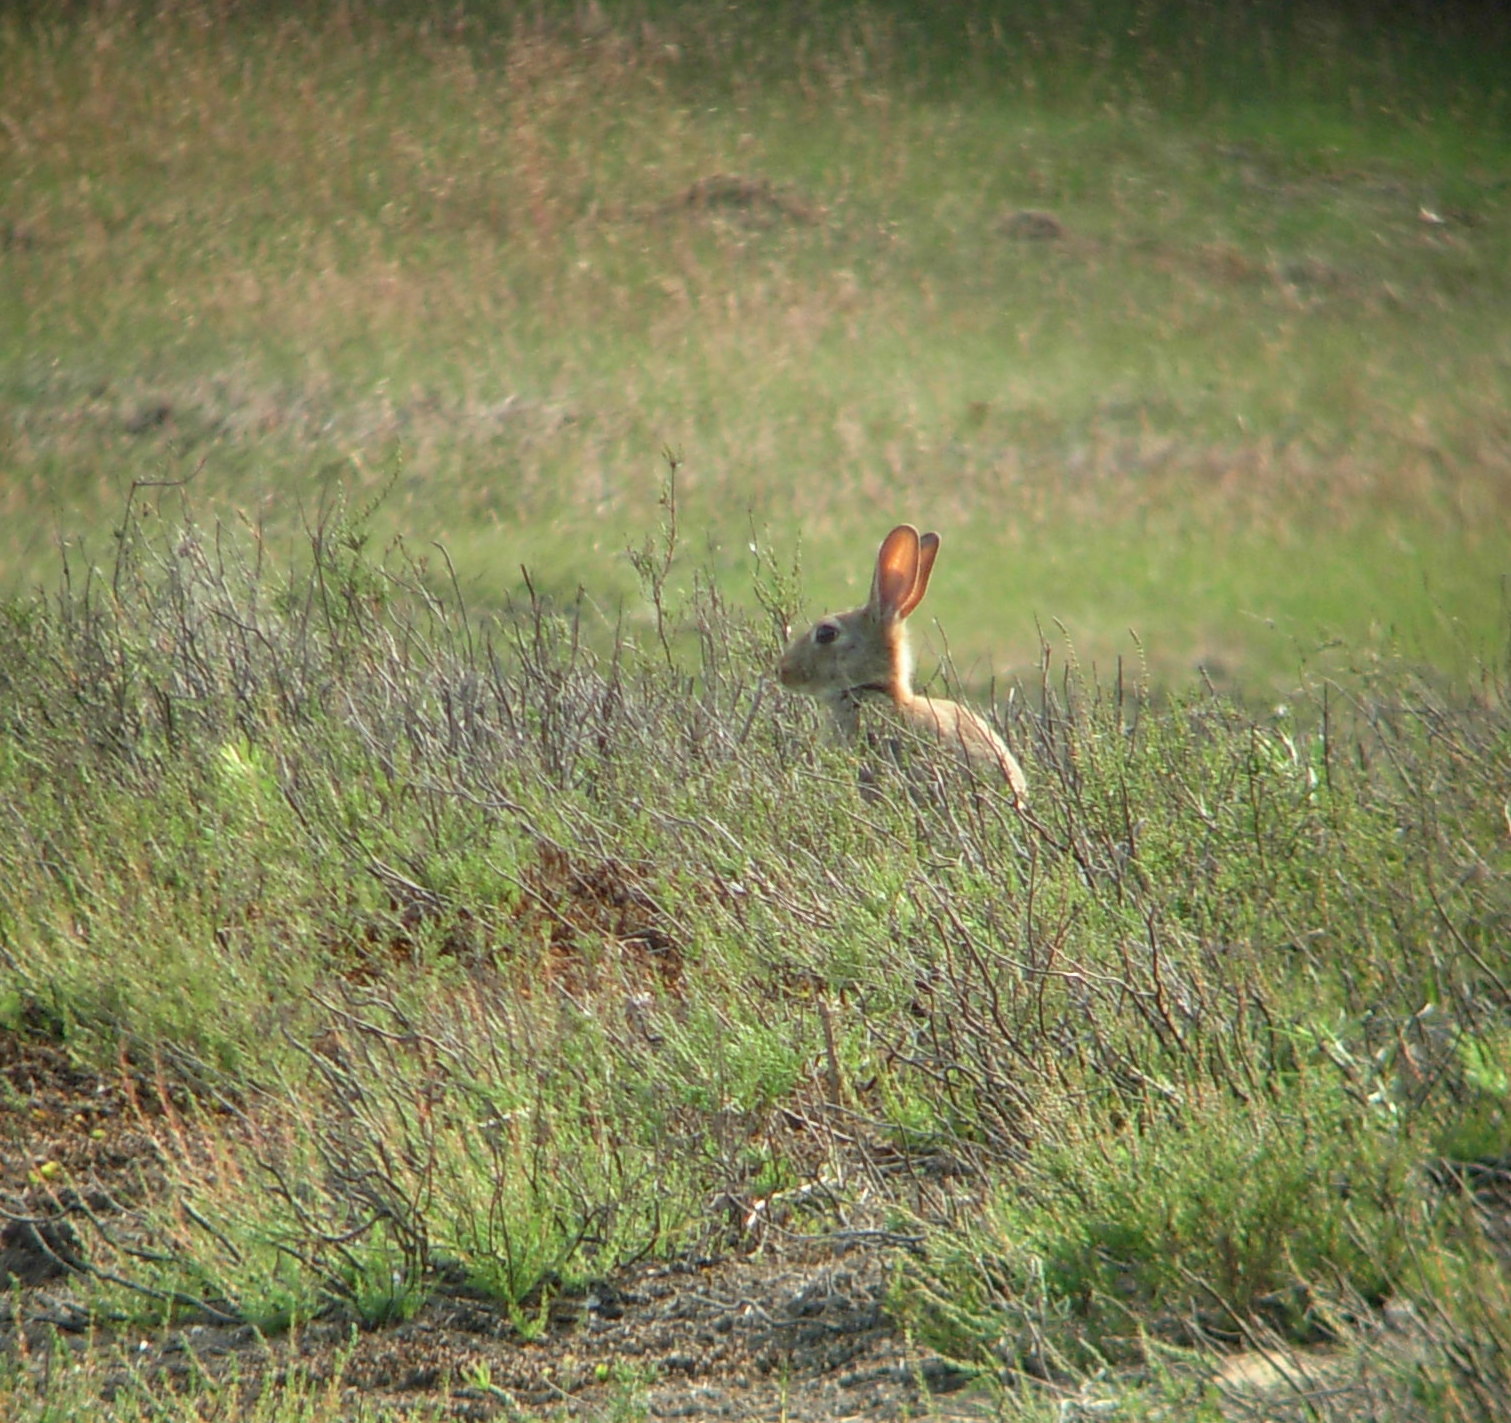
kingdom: Animalia
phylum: Chordata
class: Mammalia
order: Lagomorpha
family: Leporidae
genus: Oryctolagus
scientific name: Oryctolagus cuniculus
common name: European rabbit
